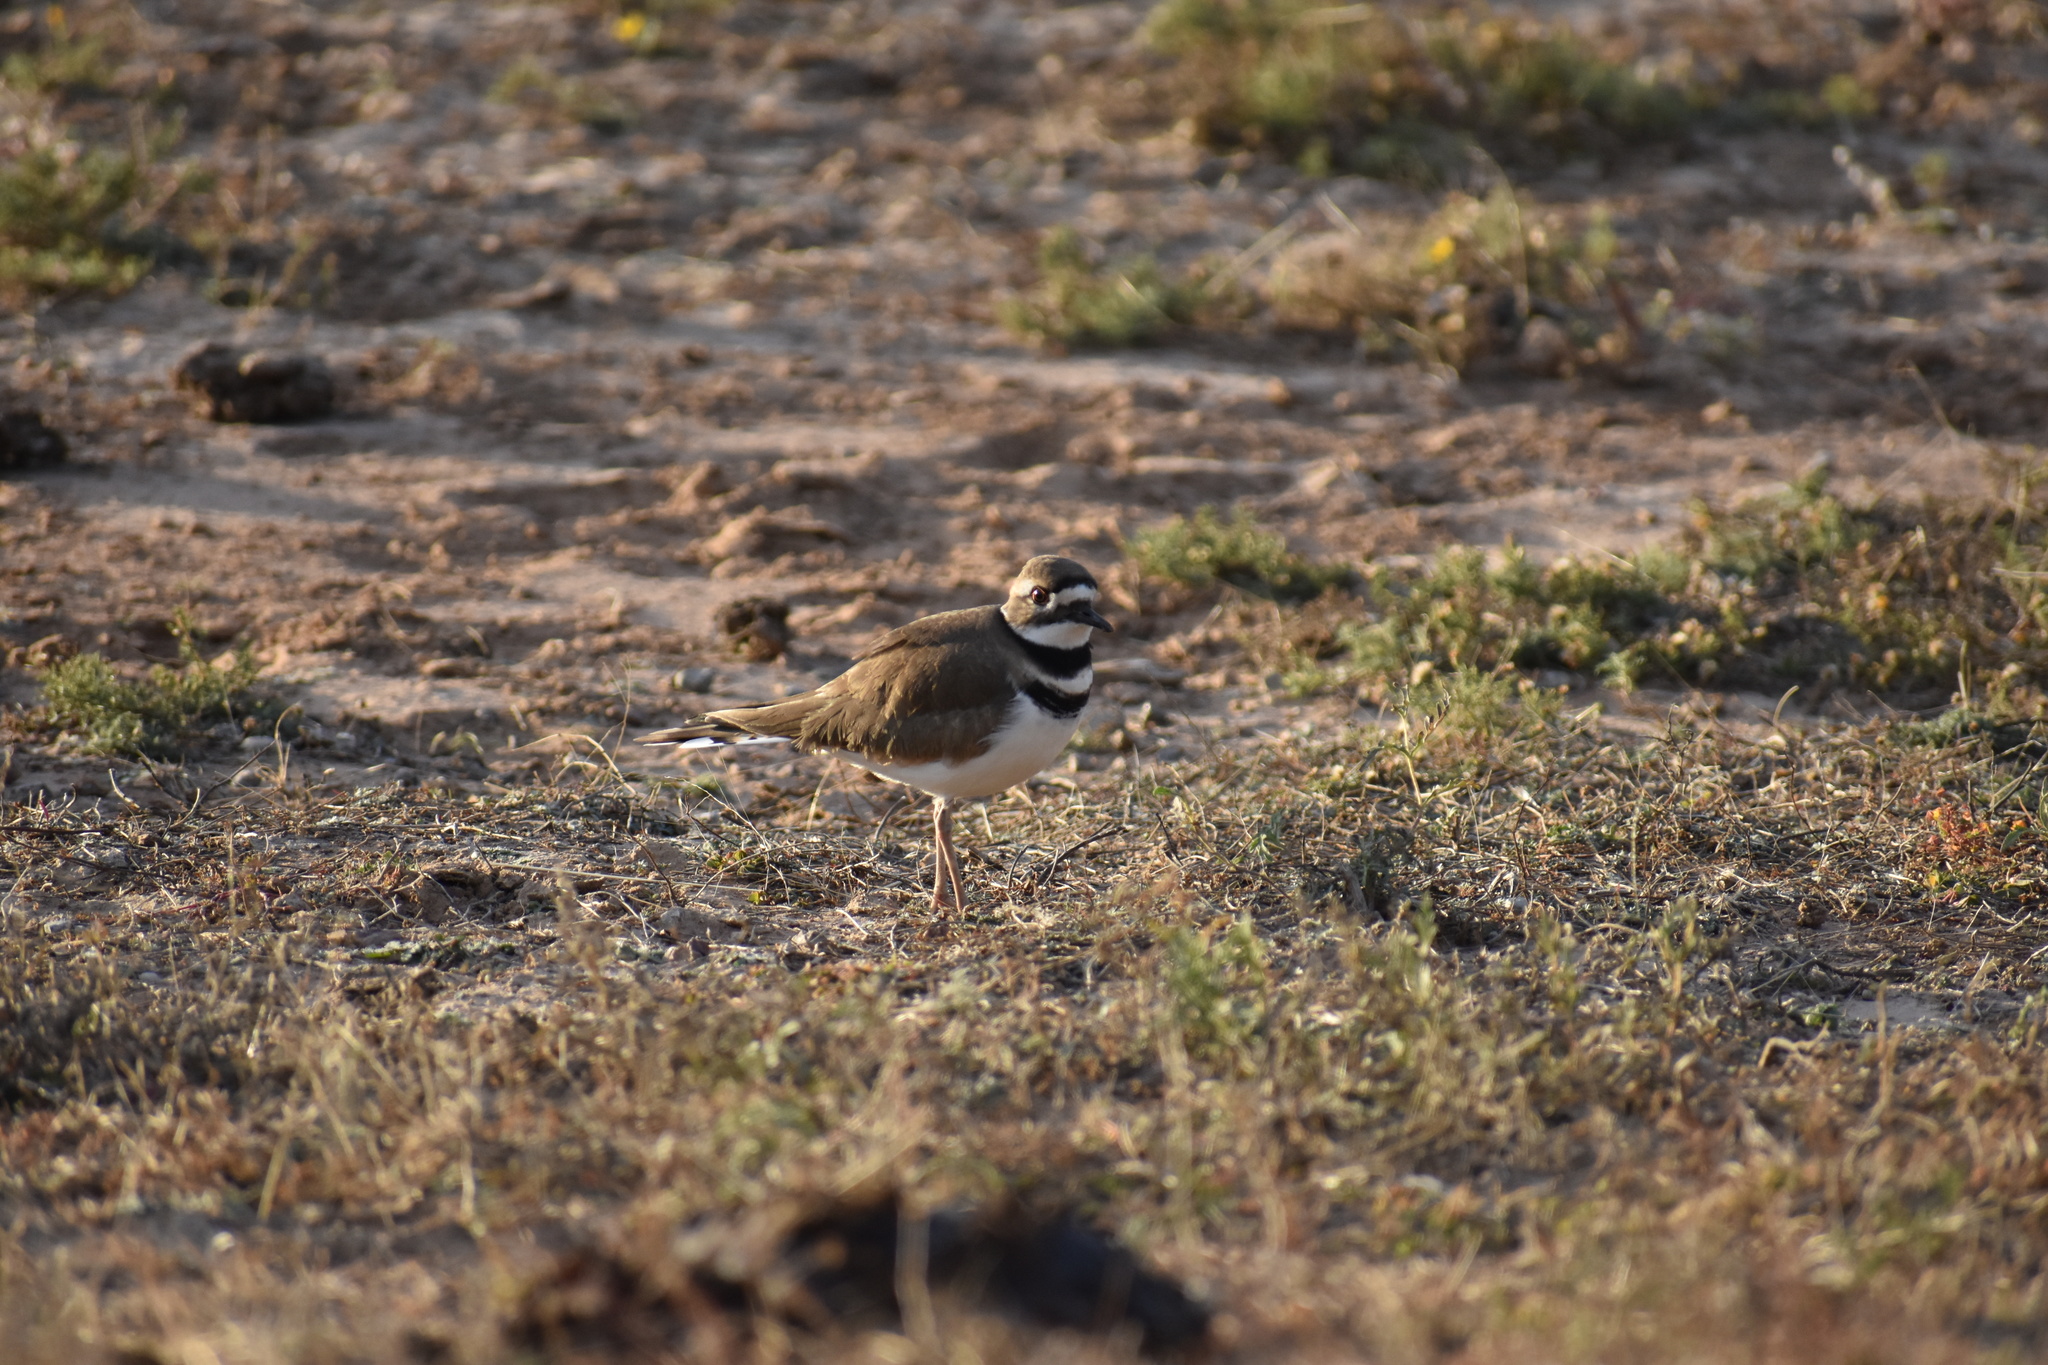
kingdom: Animalia
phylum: Chordata
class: Aves
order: Charadriiformes
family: Charadriidae
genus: Charadrius
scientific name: Charadrius vociferus
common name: Killdeer
